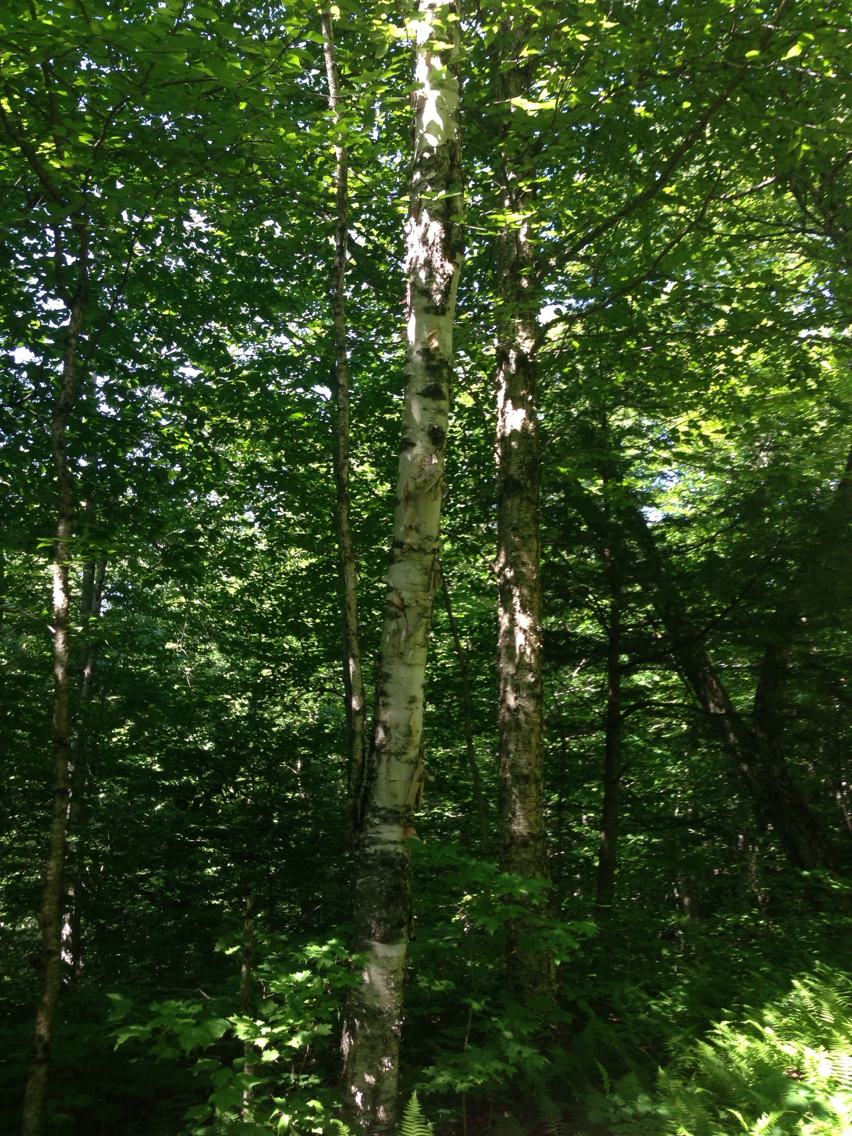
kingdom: Plantae
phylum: Tracheophyta
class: Magnoliopsida
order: Fagales
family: Betulaceae
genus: Betula
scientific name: Betula papyrifera
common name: Paper birch
